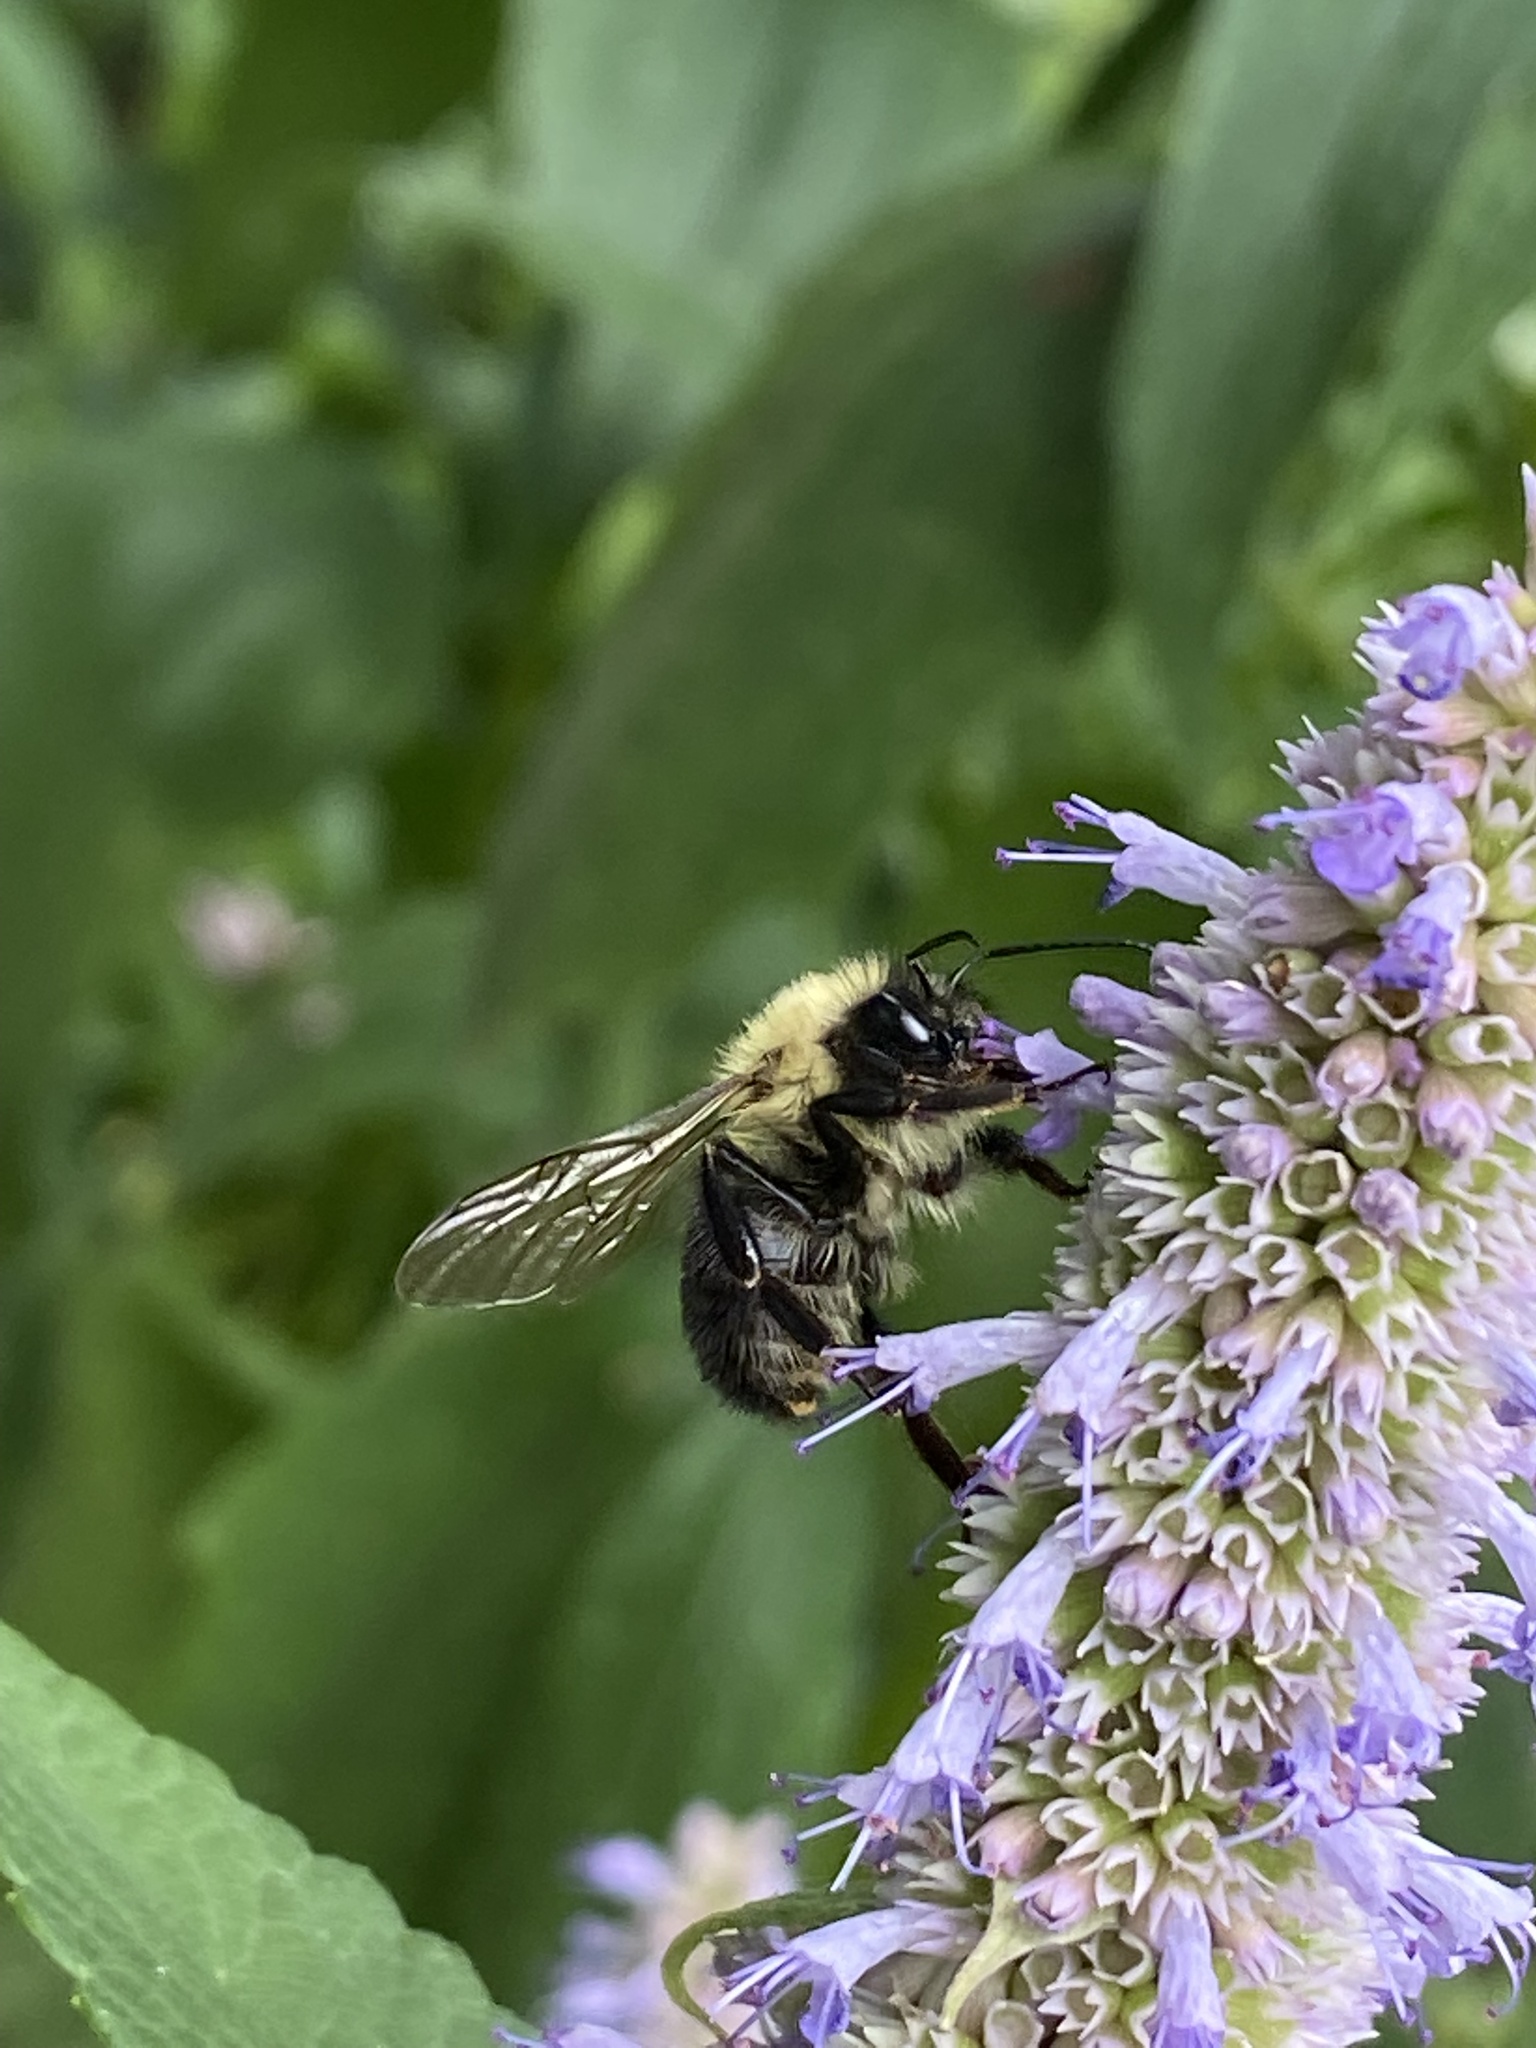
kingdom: Animalia
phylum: Arthropoda
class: Insecta
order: Hymenoptera
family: Apidae
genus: Bombus
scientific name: Bombus bimaculatus
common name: Two-spotted bumble bee
